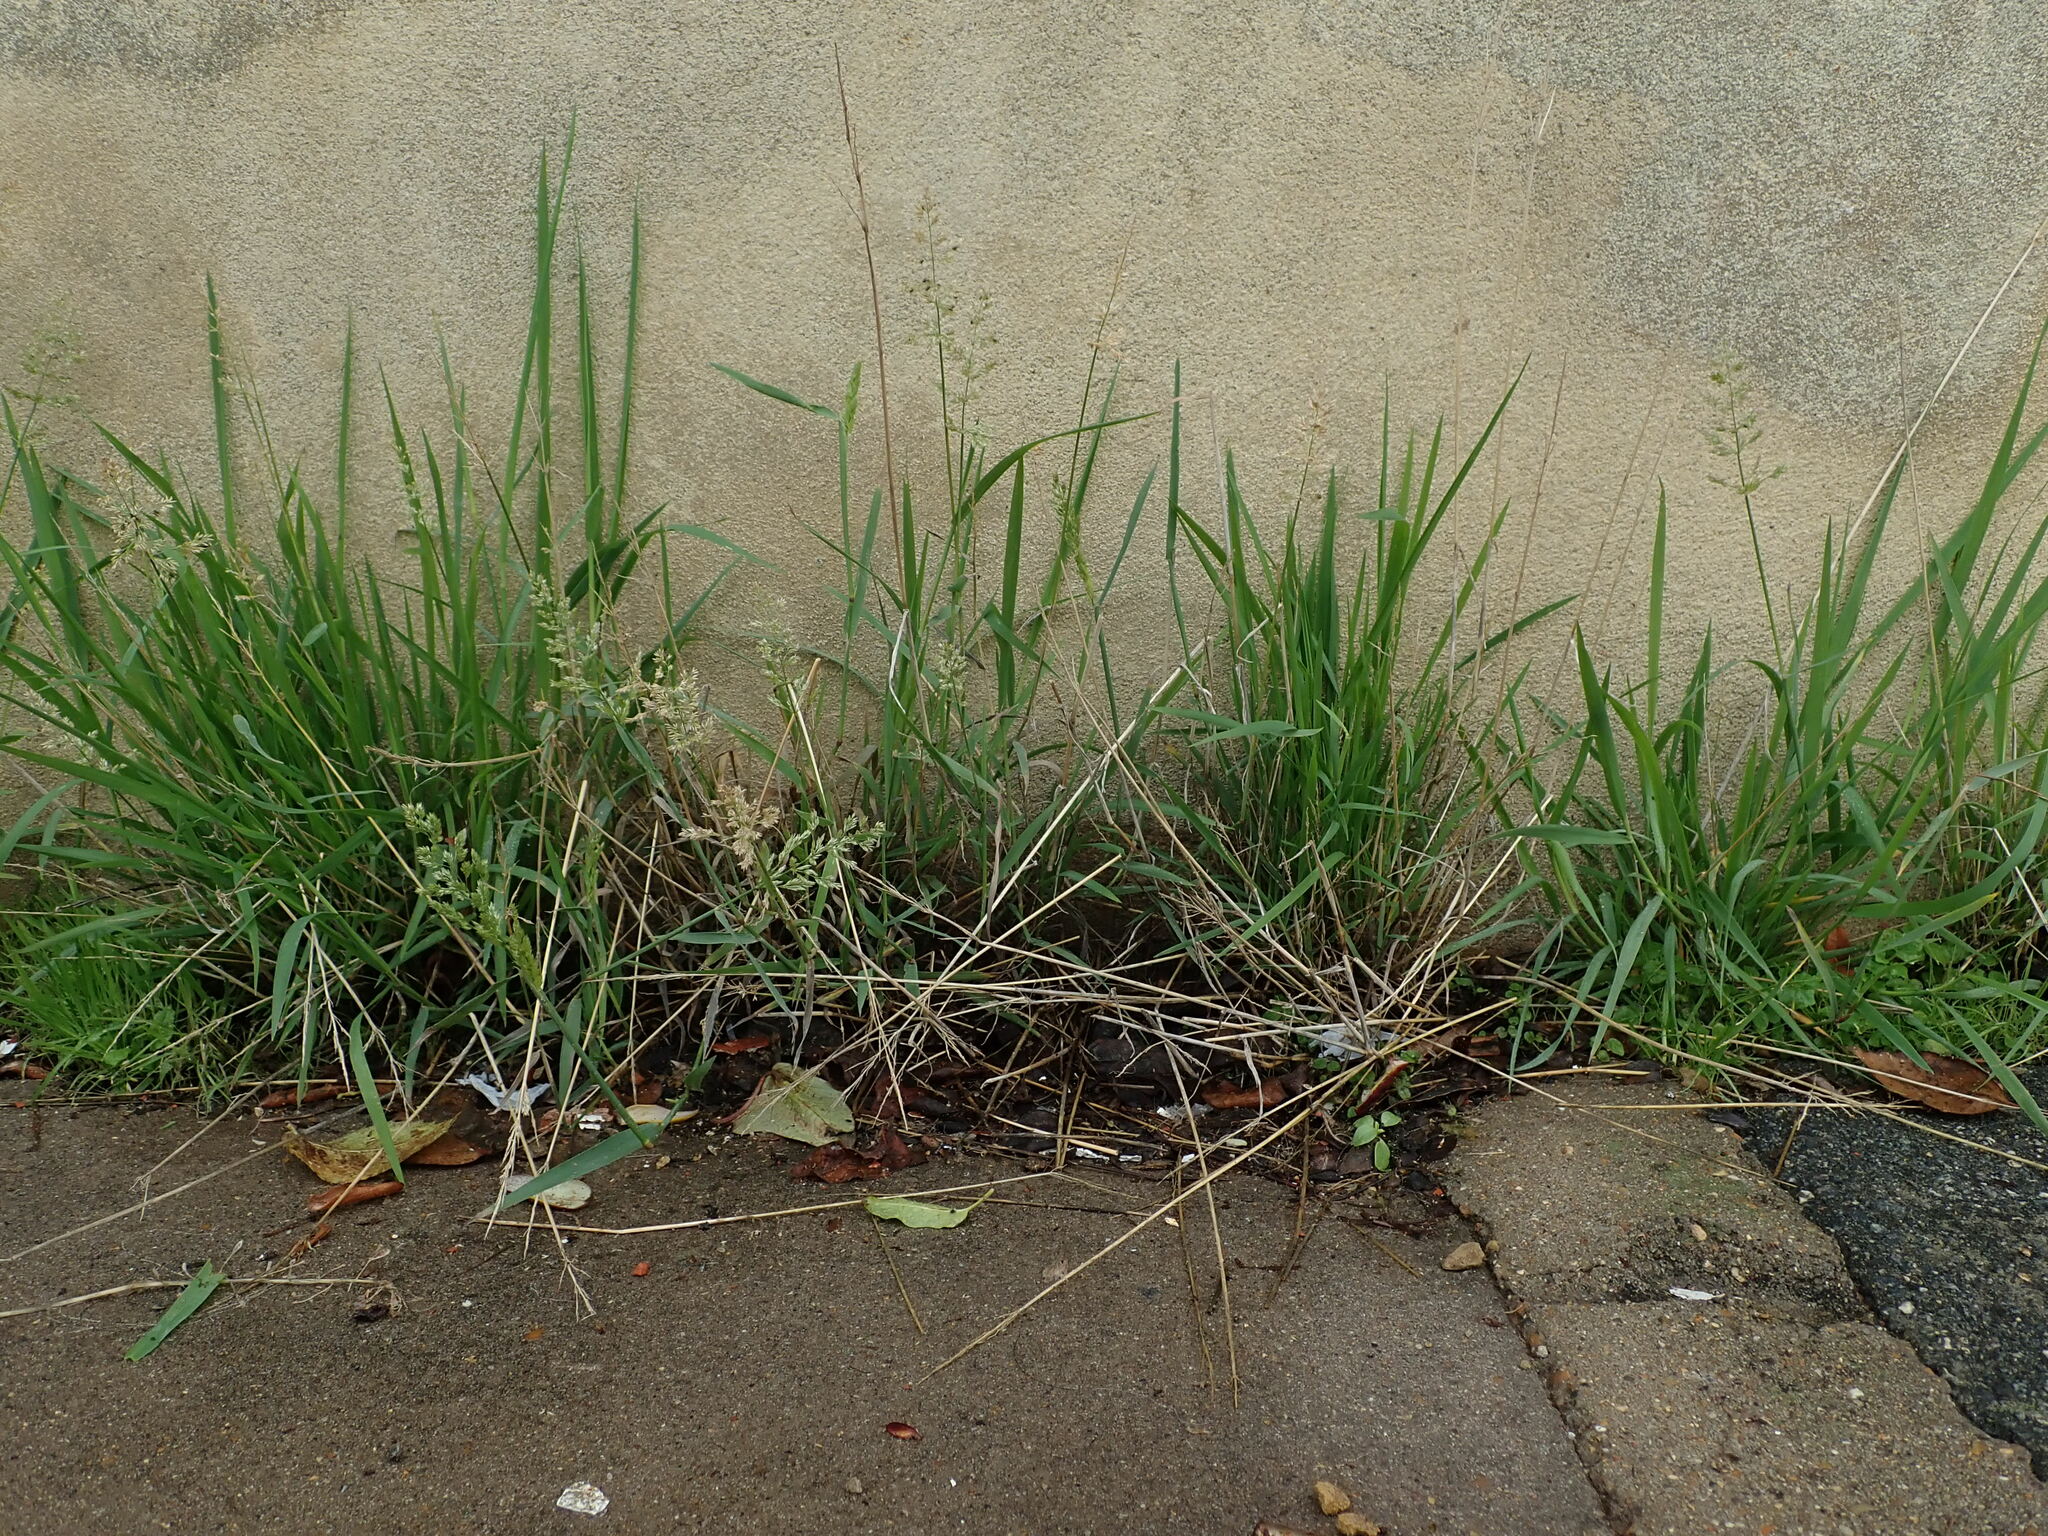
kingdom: Plantae
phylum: Tracheophyta
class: Liliopsida
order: Poales
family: Poaceae
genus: Polypogon
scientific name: Polypogon viridis
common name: Water bent
